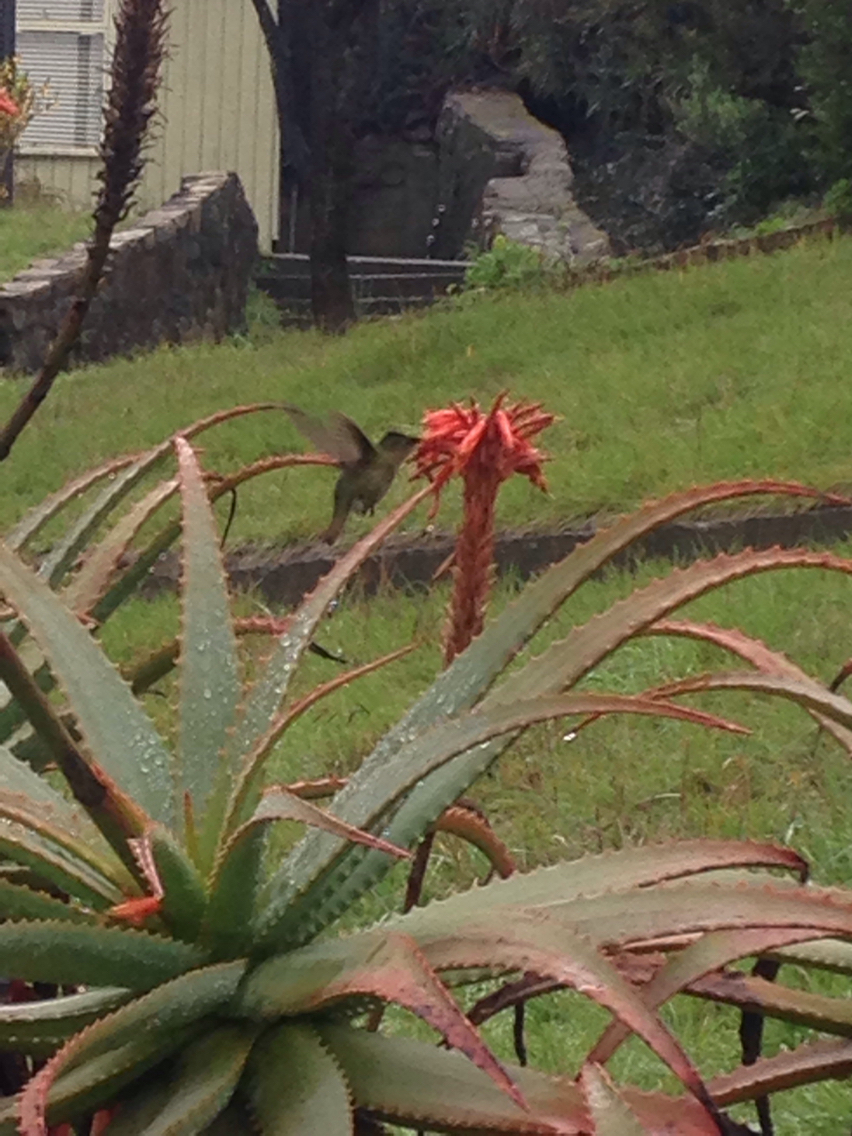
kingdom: Animalia
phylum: Chordata
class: Aves
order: Apodiformes
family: Trochilidae
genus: Sephanoides
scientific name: Sephanoides sephaniodes
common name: Green-backed firecrown
